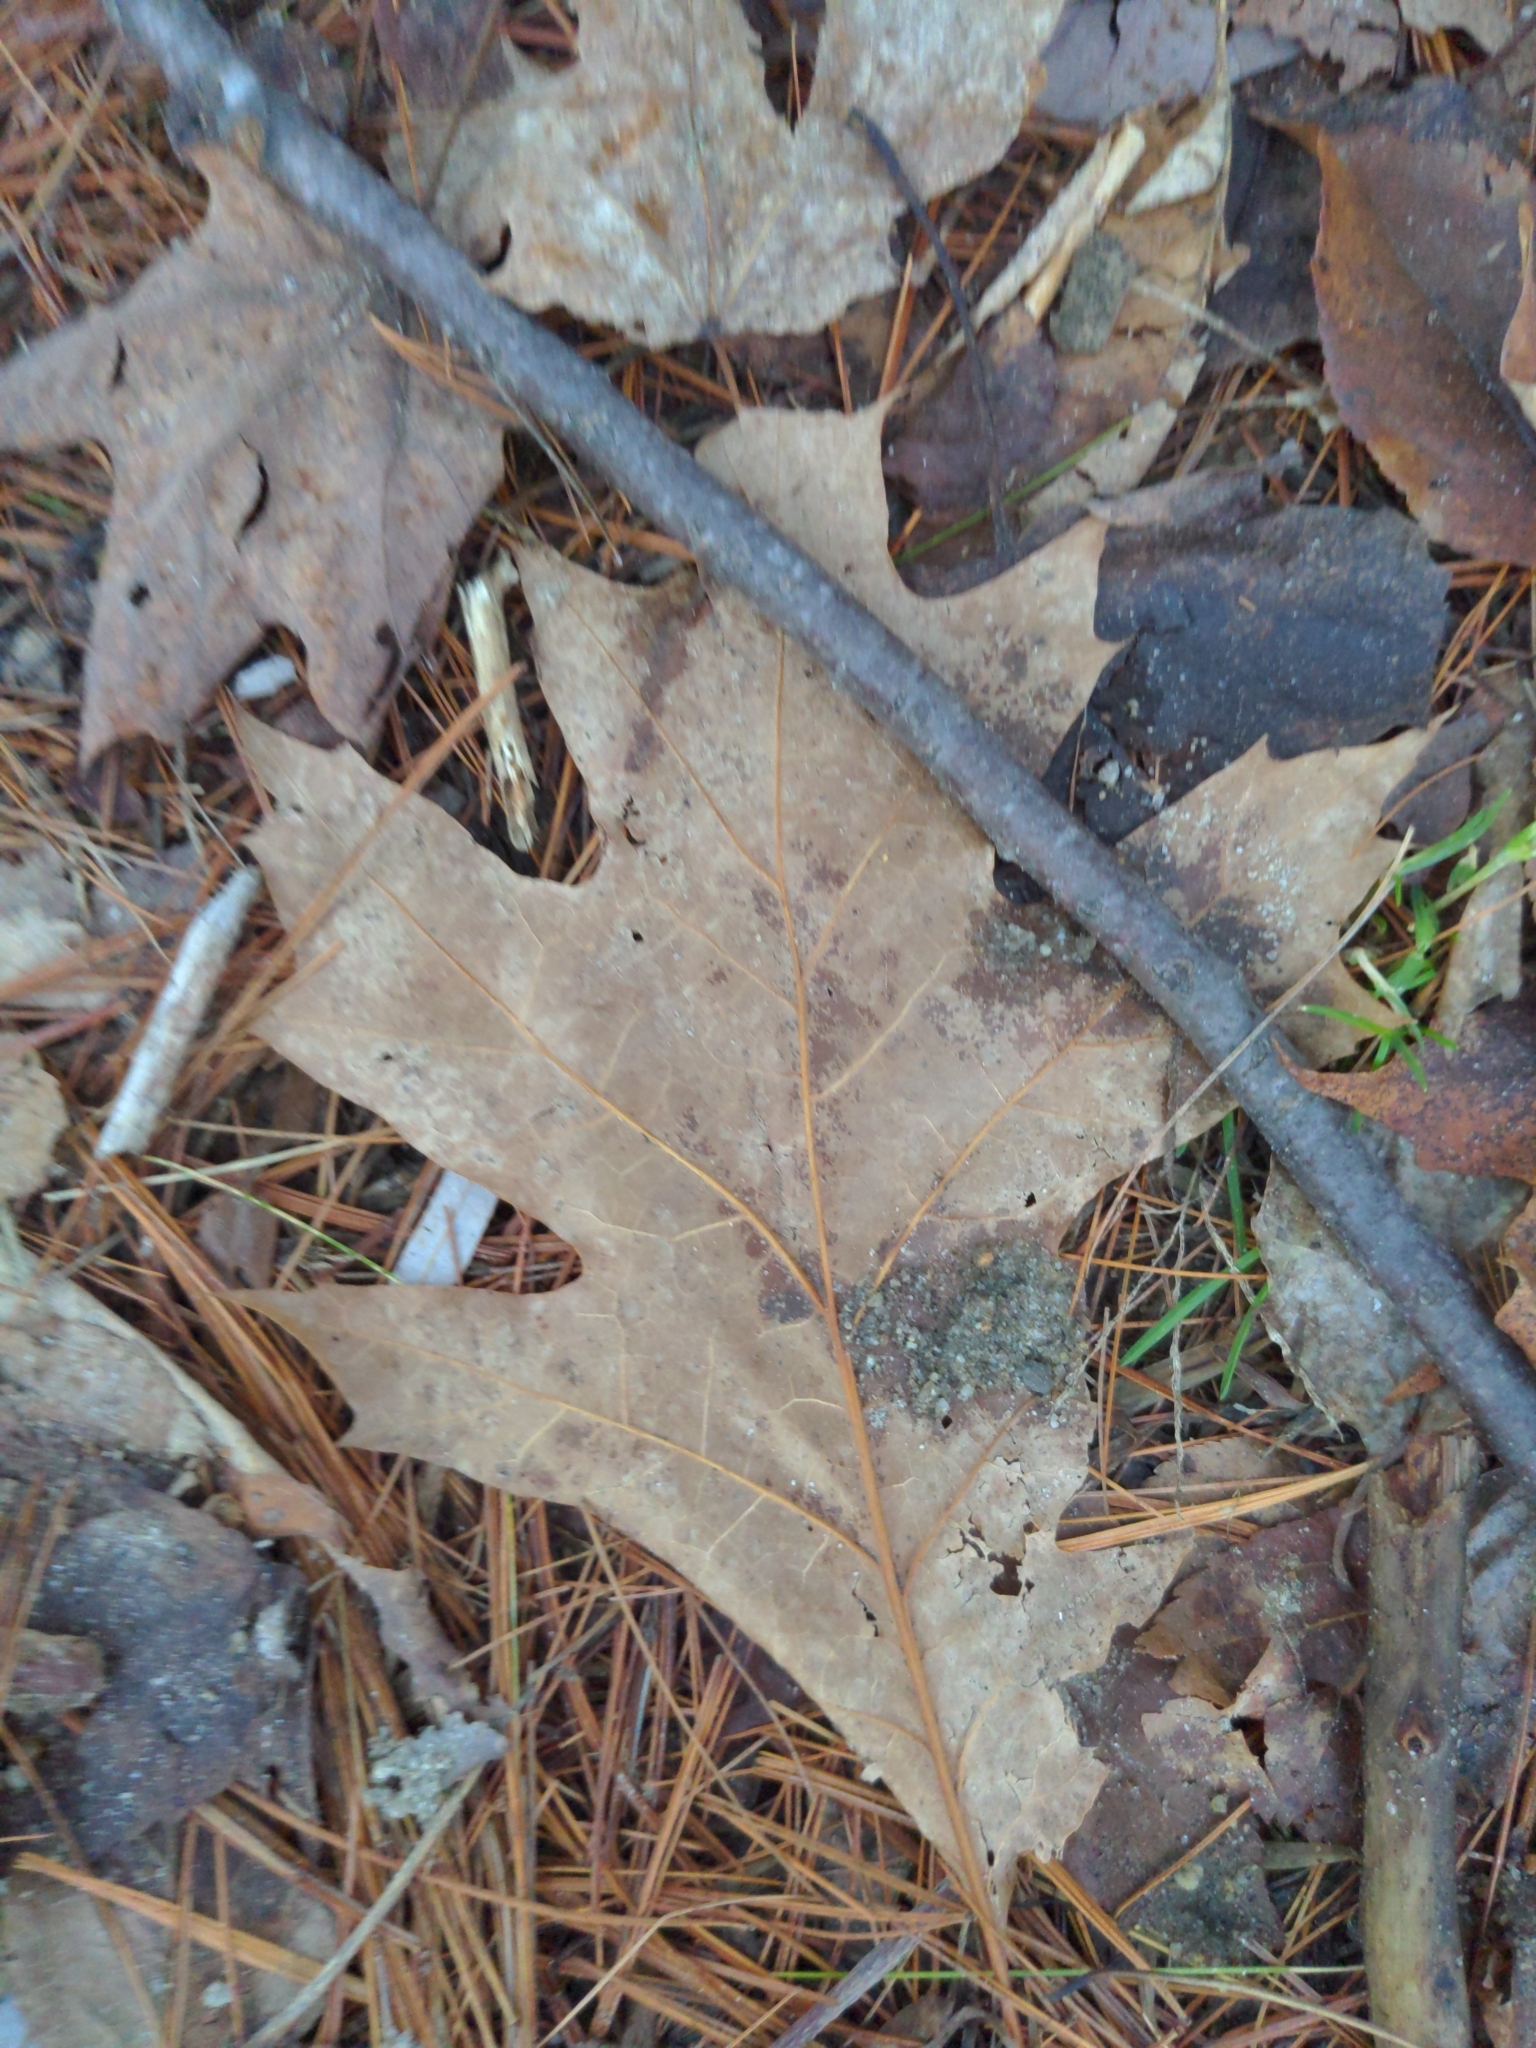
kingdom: Plantae
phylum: Tracheophyta
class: Magnoliopsida
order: Fagales
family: Fagaceae
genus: Quercus
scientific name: Quercus rubra
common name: Red oak
